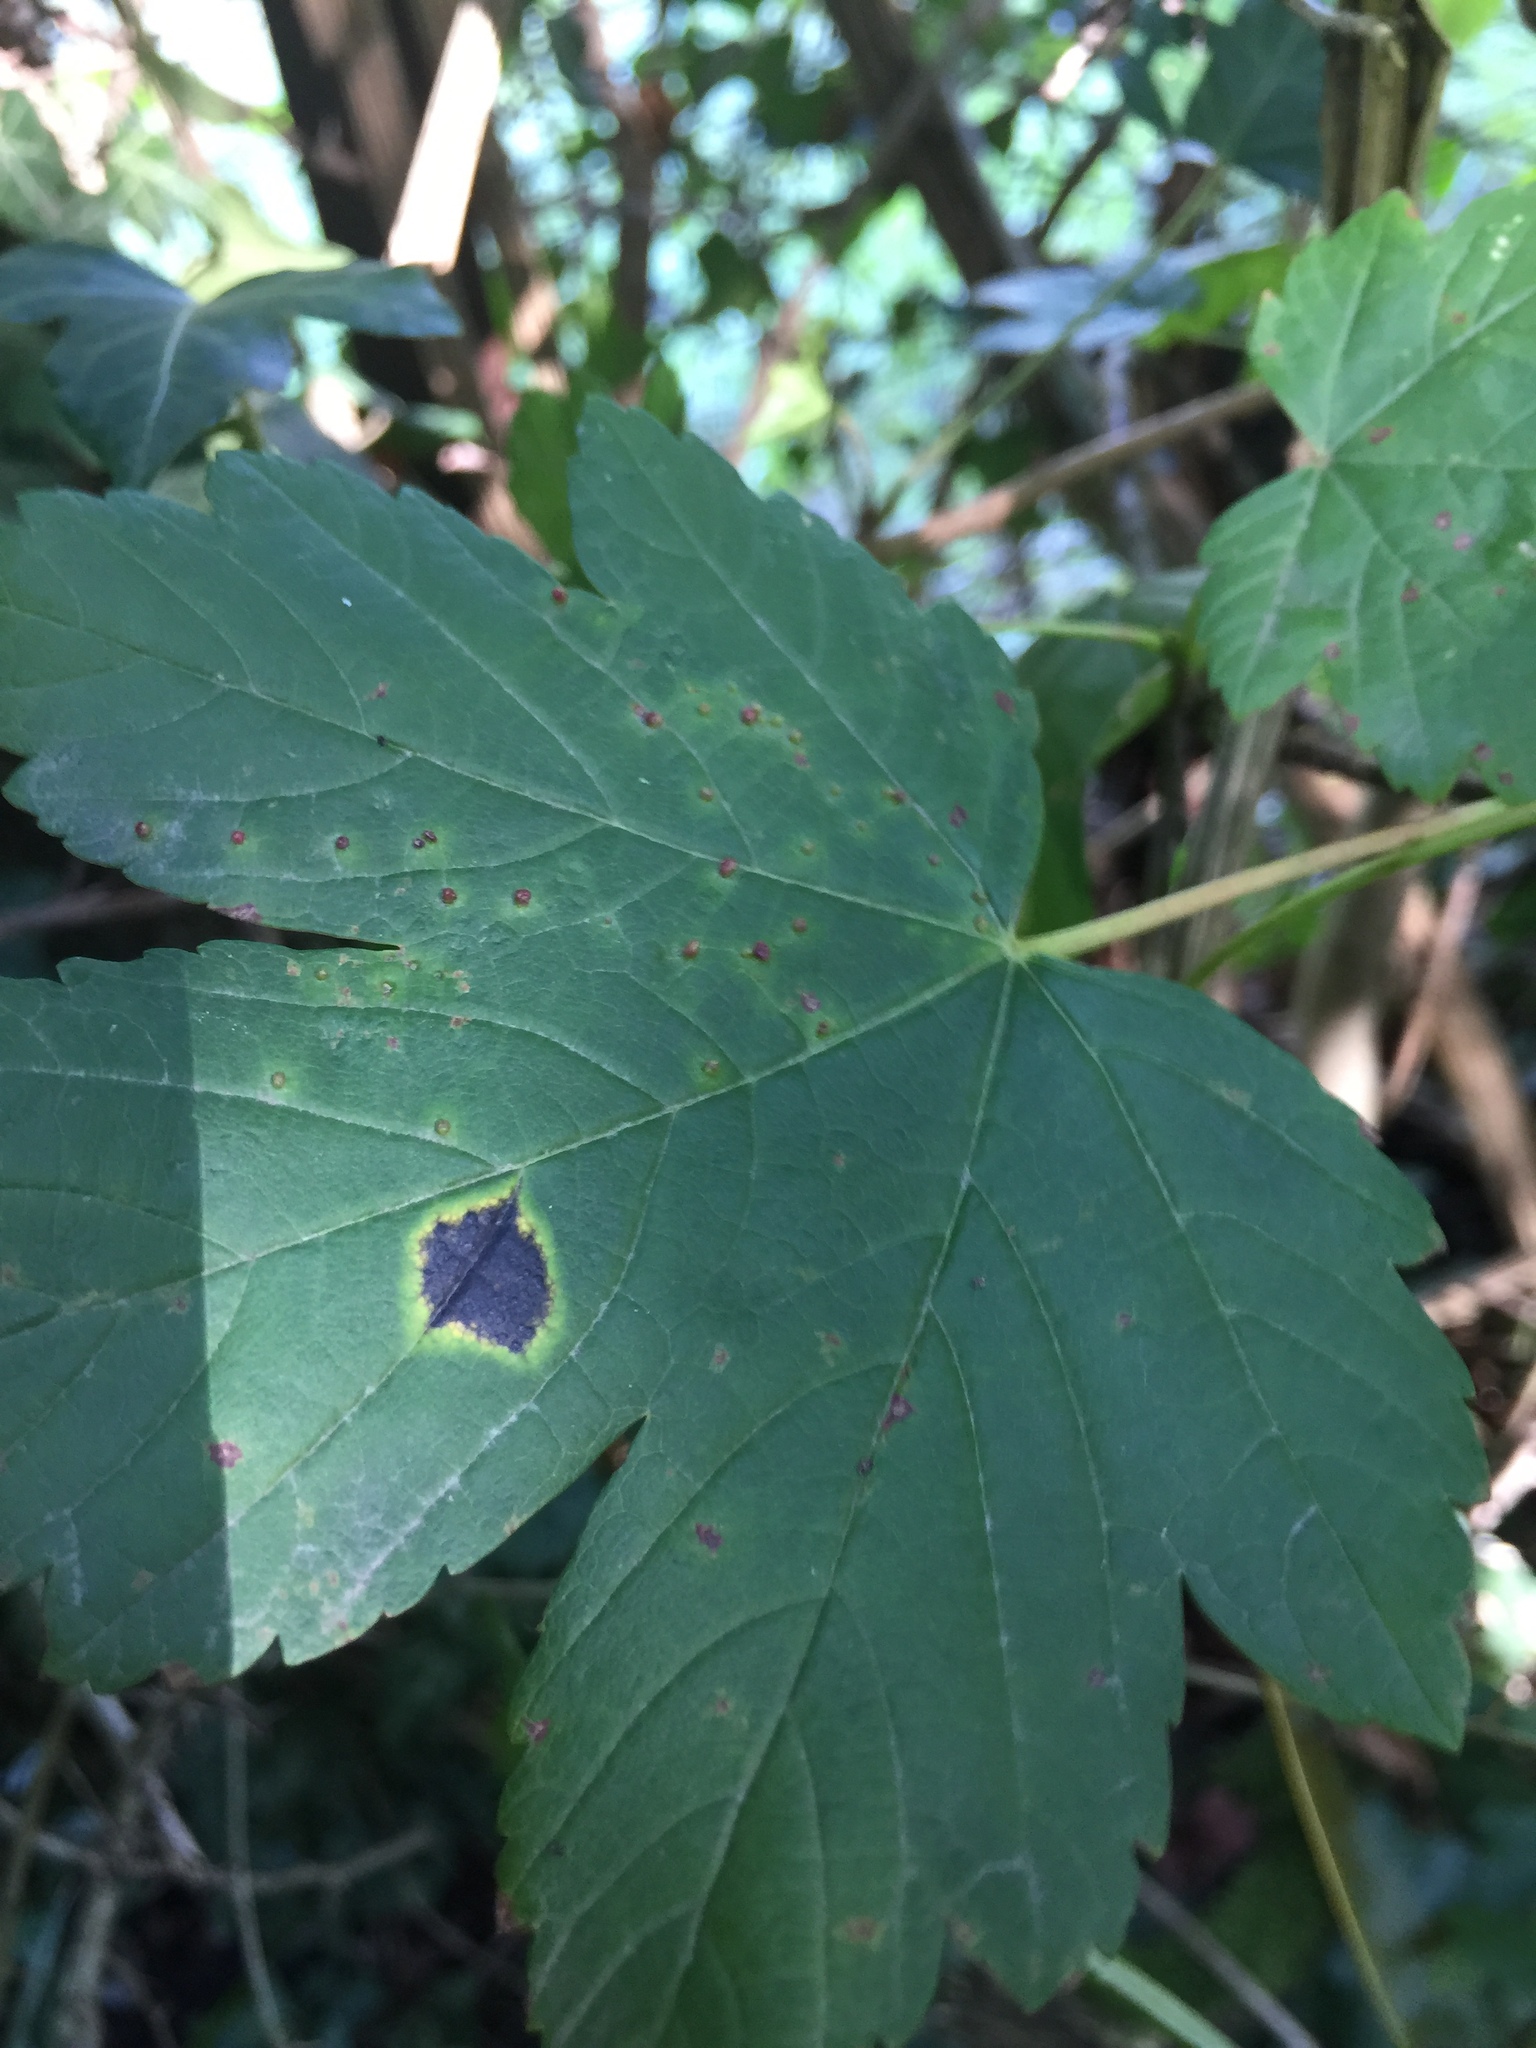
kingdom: Fungi
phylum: Ascomycota
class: Leotiomycetes
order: Rhytismatales
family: Rhytismataceae
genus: Rhytisma
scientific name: Rhytisma acerinum
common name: European tar spot
